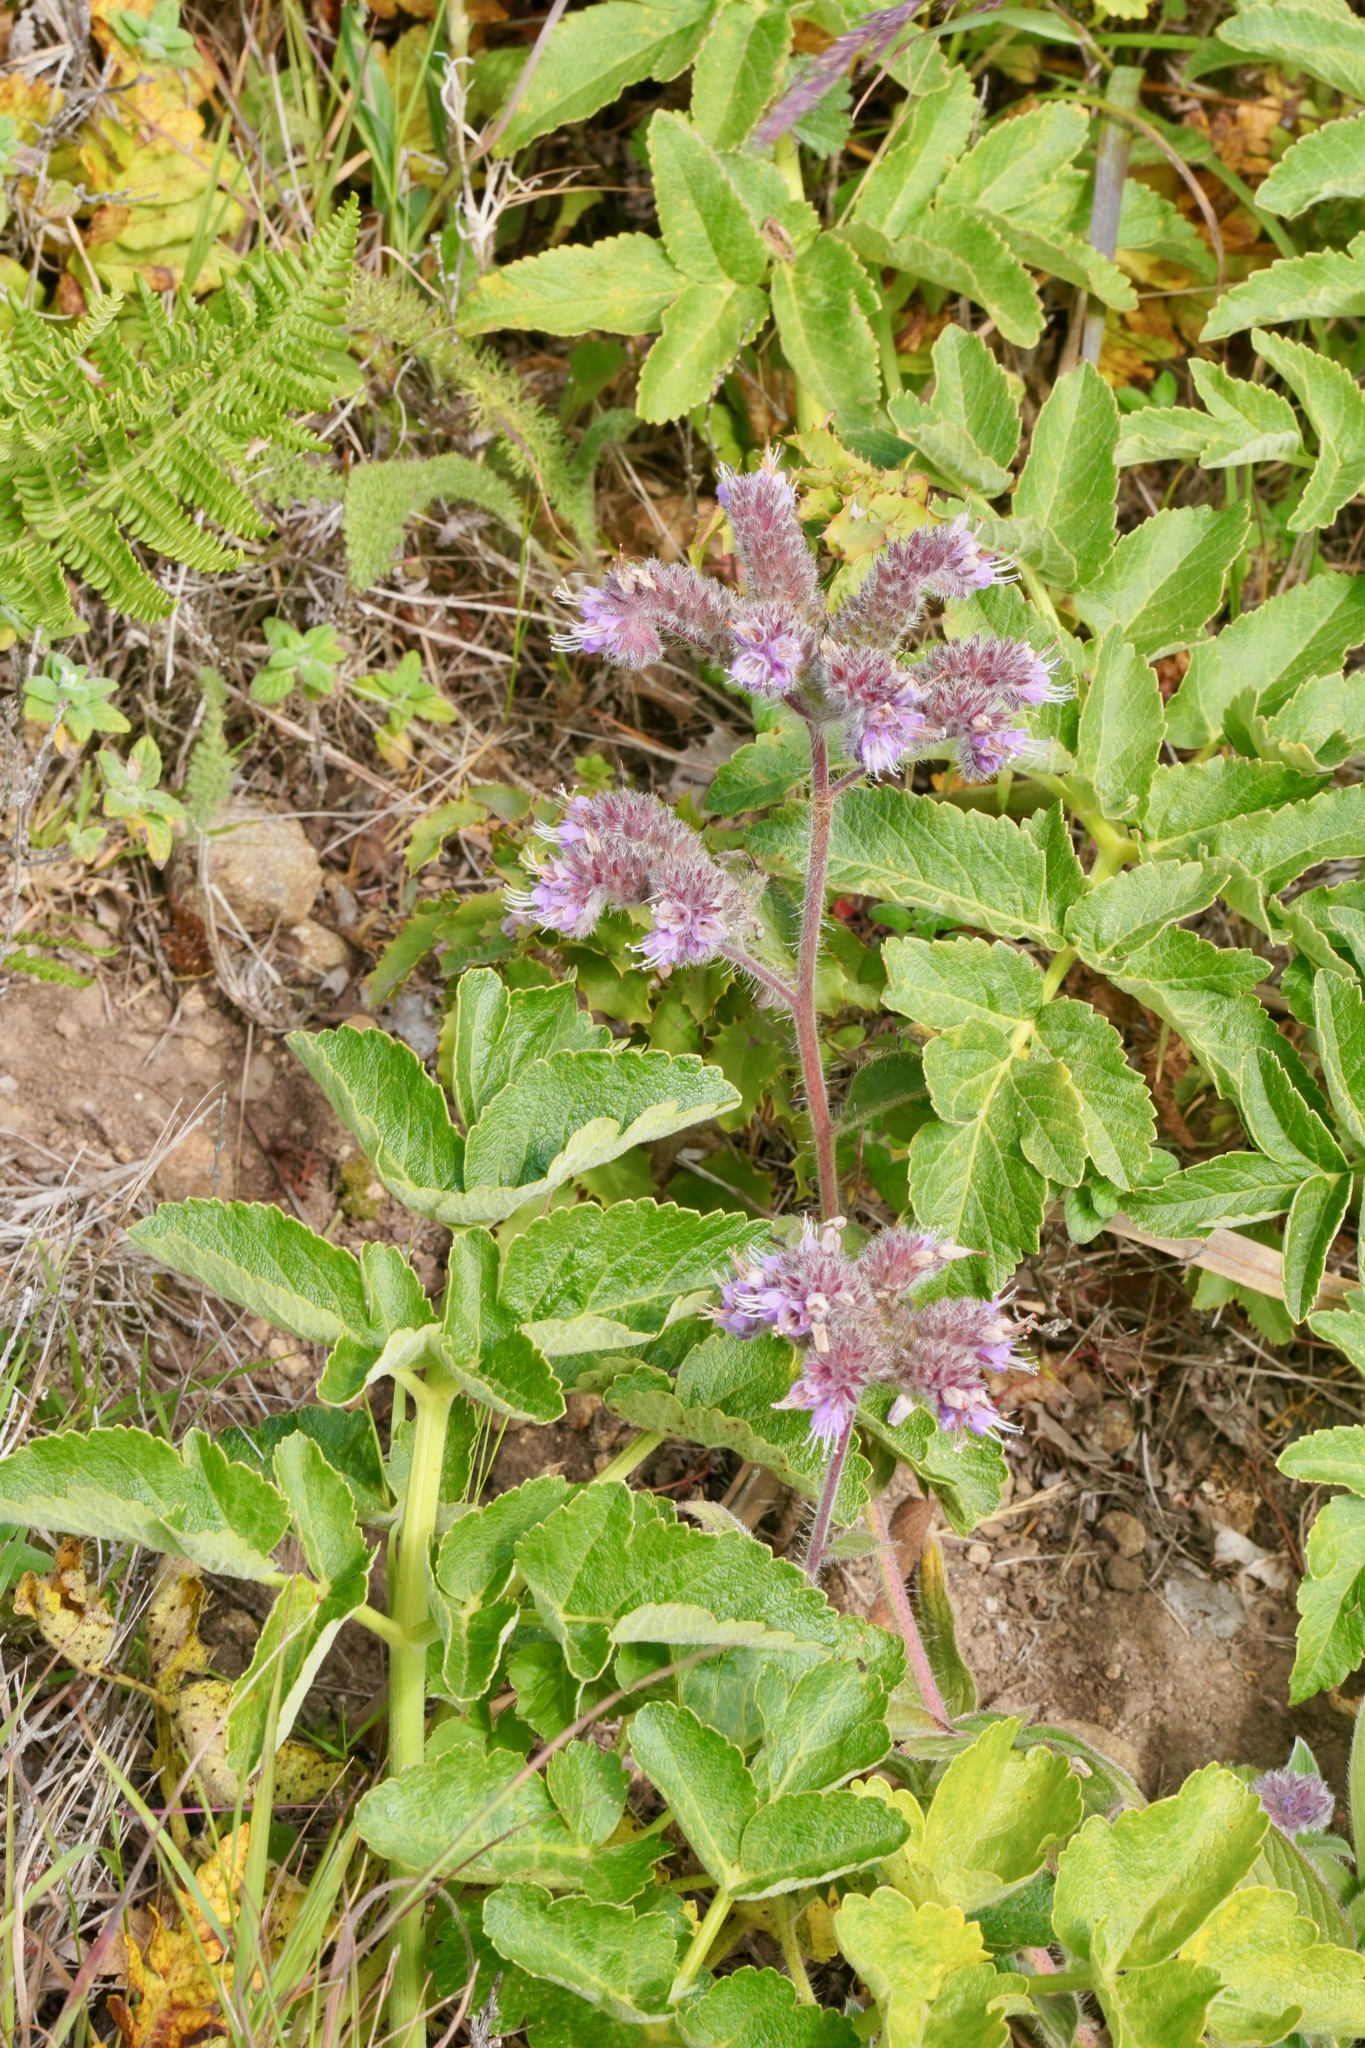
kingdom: Plantae
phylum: Tracheophyta
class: Magnoliopsida
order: Boraginales
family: Hydrophyllaceae
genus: Phacelia
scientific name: Phacelia californica
